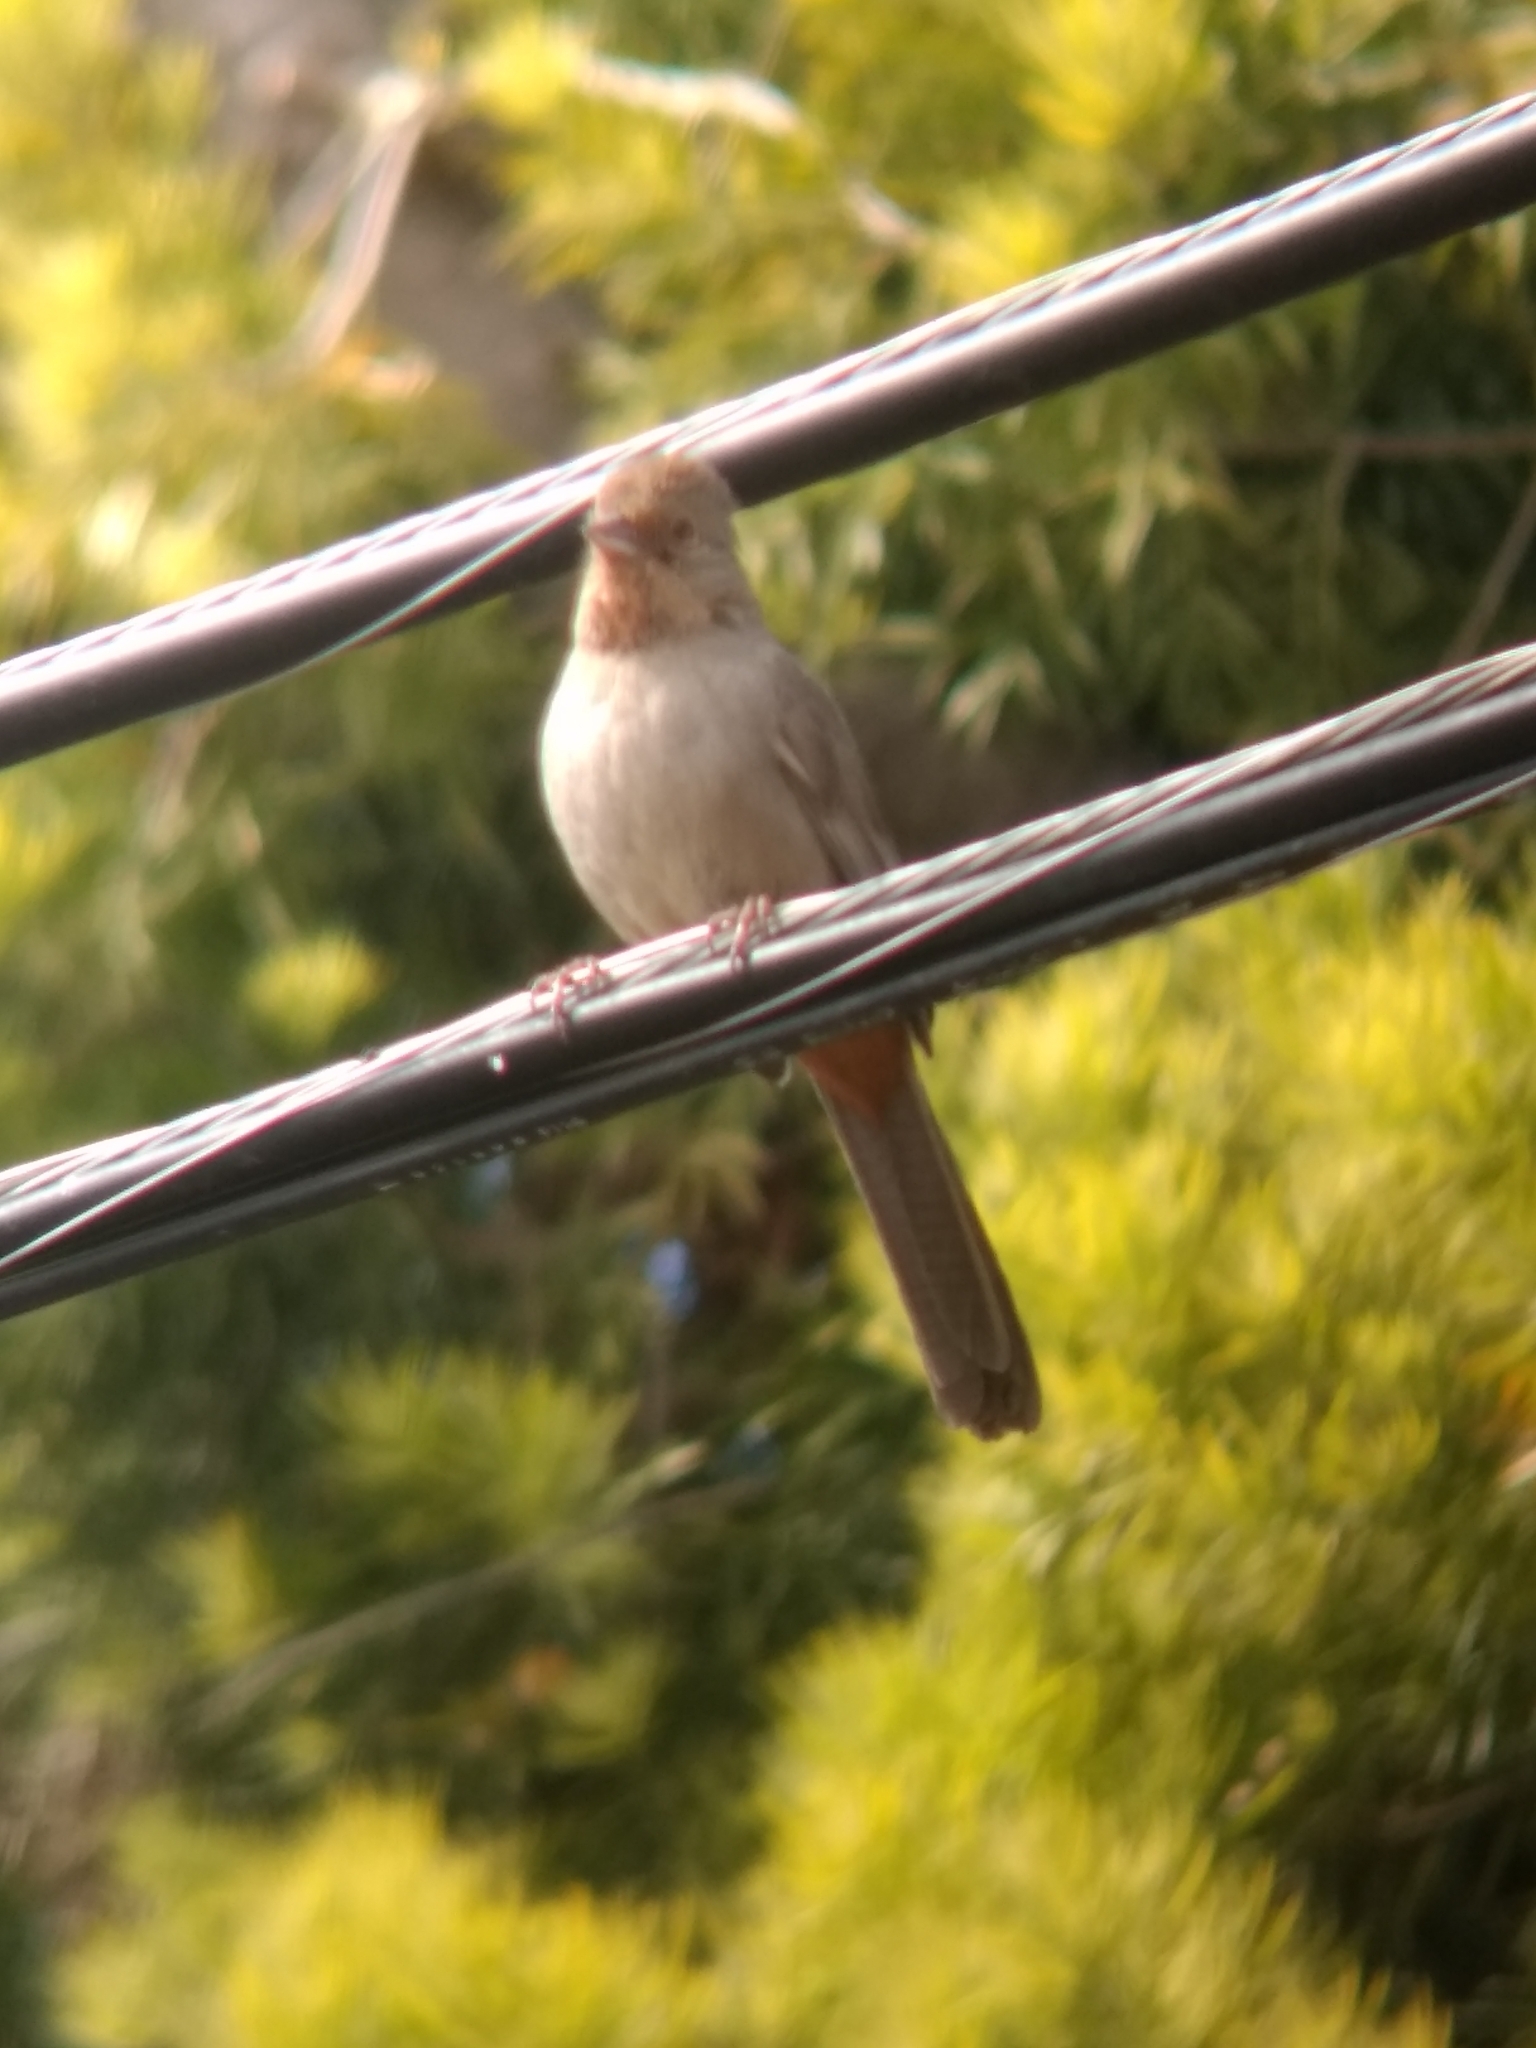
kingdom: Animalia
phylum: Chordata
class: Aves
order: Passeriformes
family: Passerellidae
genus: Melozone
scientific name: Melozone crissalis
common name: California towhee
